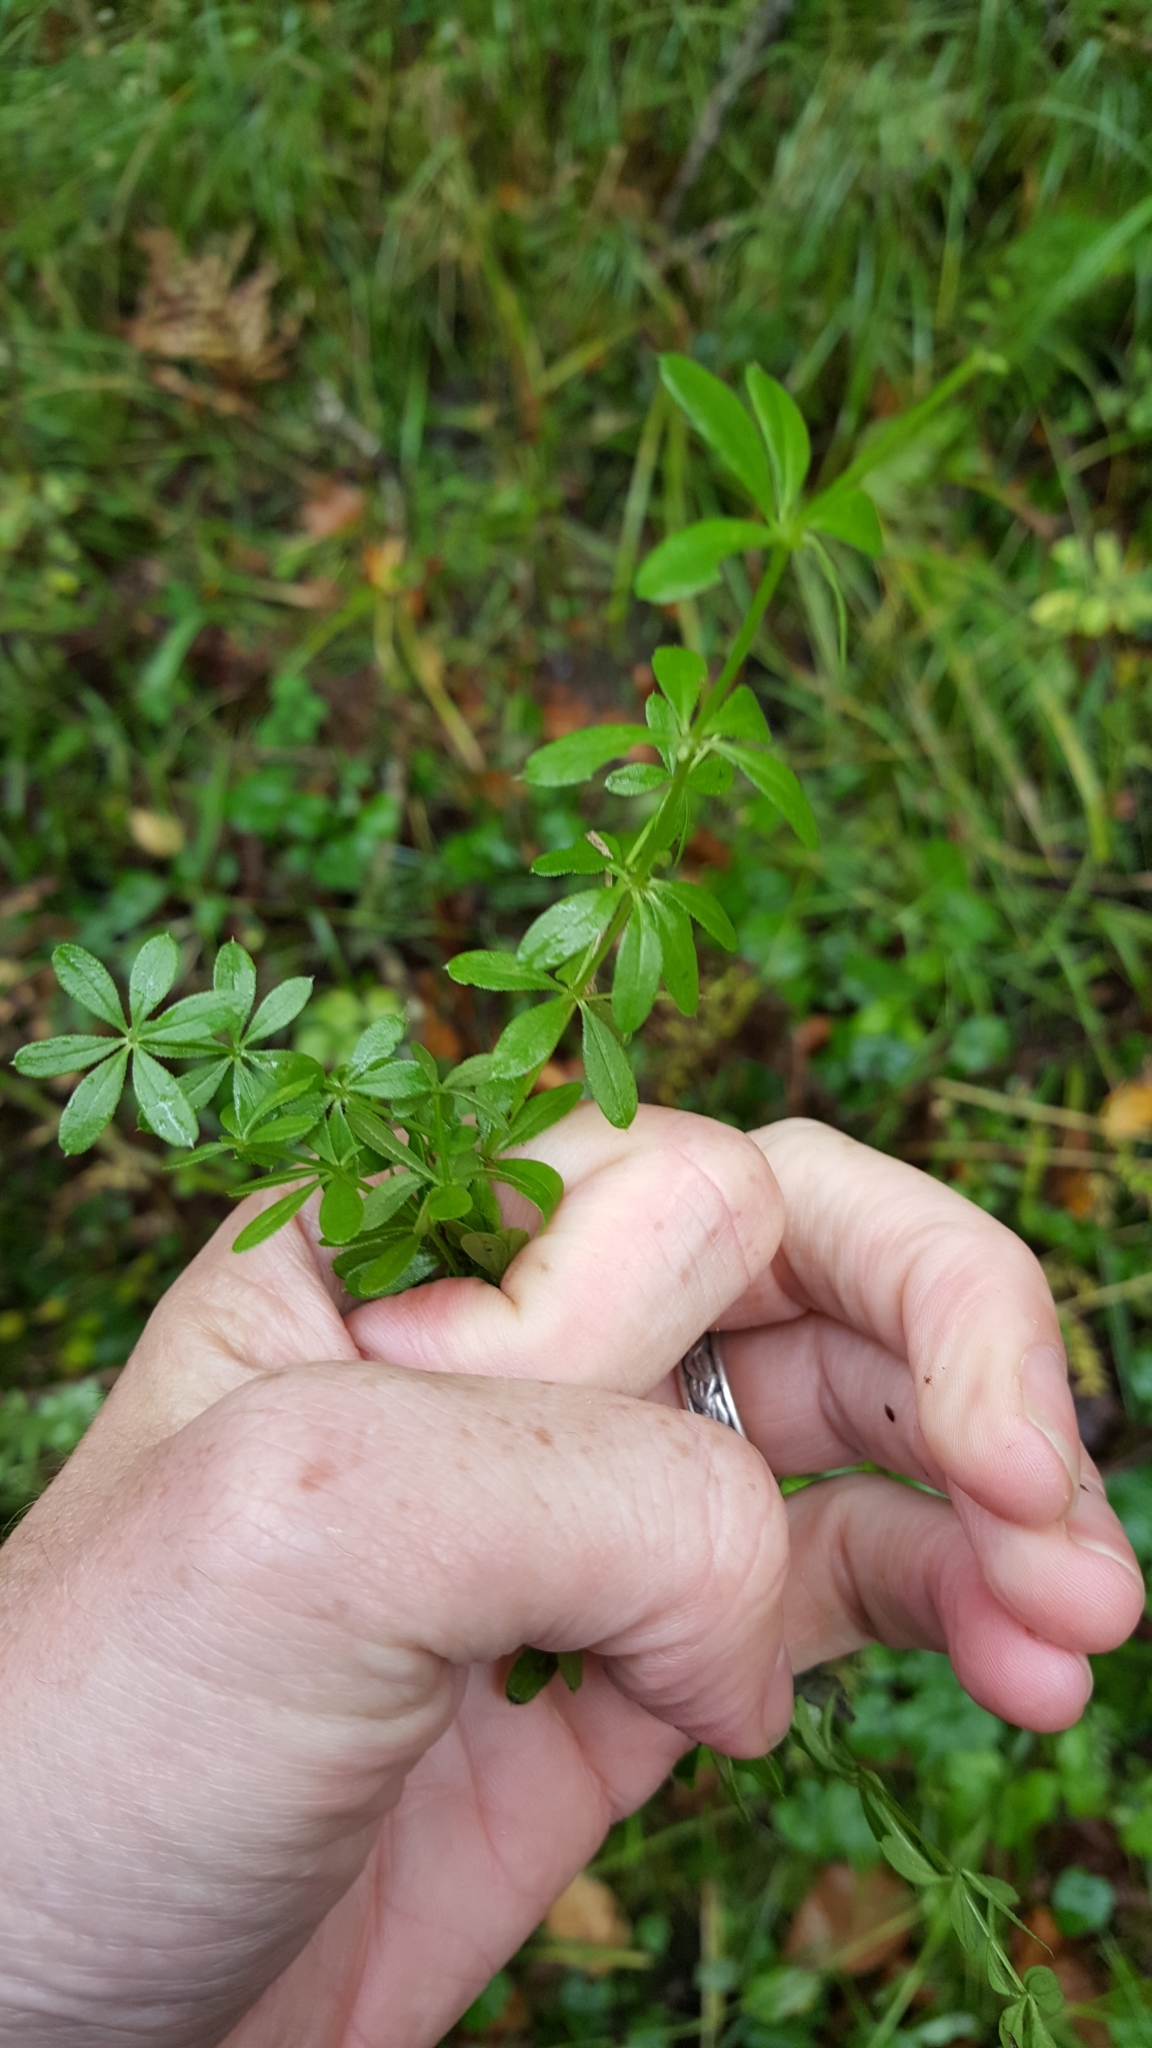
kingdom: Plantae
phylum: Tracheophyta
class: Magnoliopsida
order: Gentianales
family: Rubiaceae
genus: Galium
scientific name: Galium asprellum
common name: Rough bedstraw
